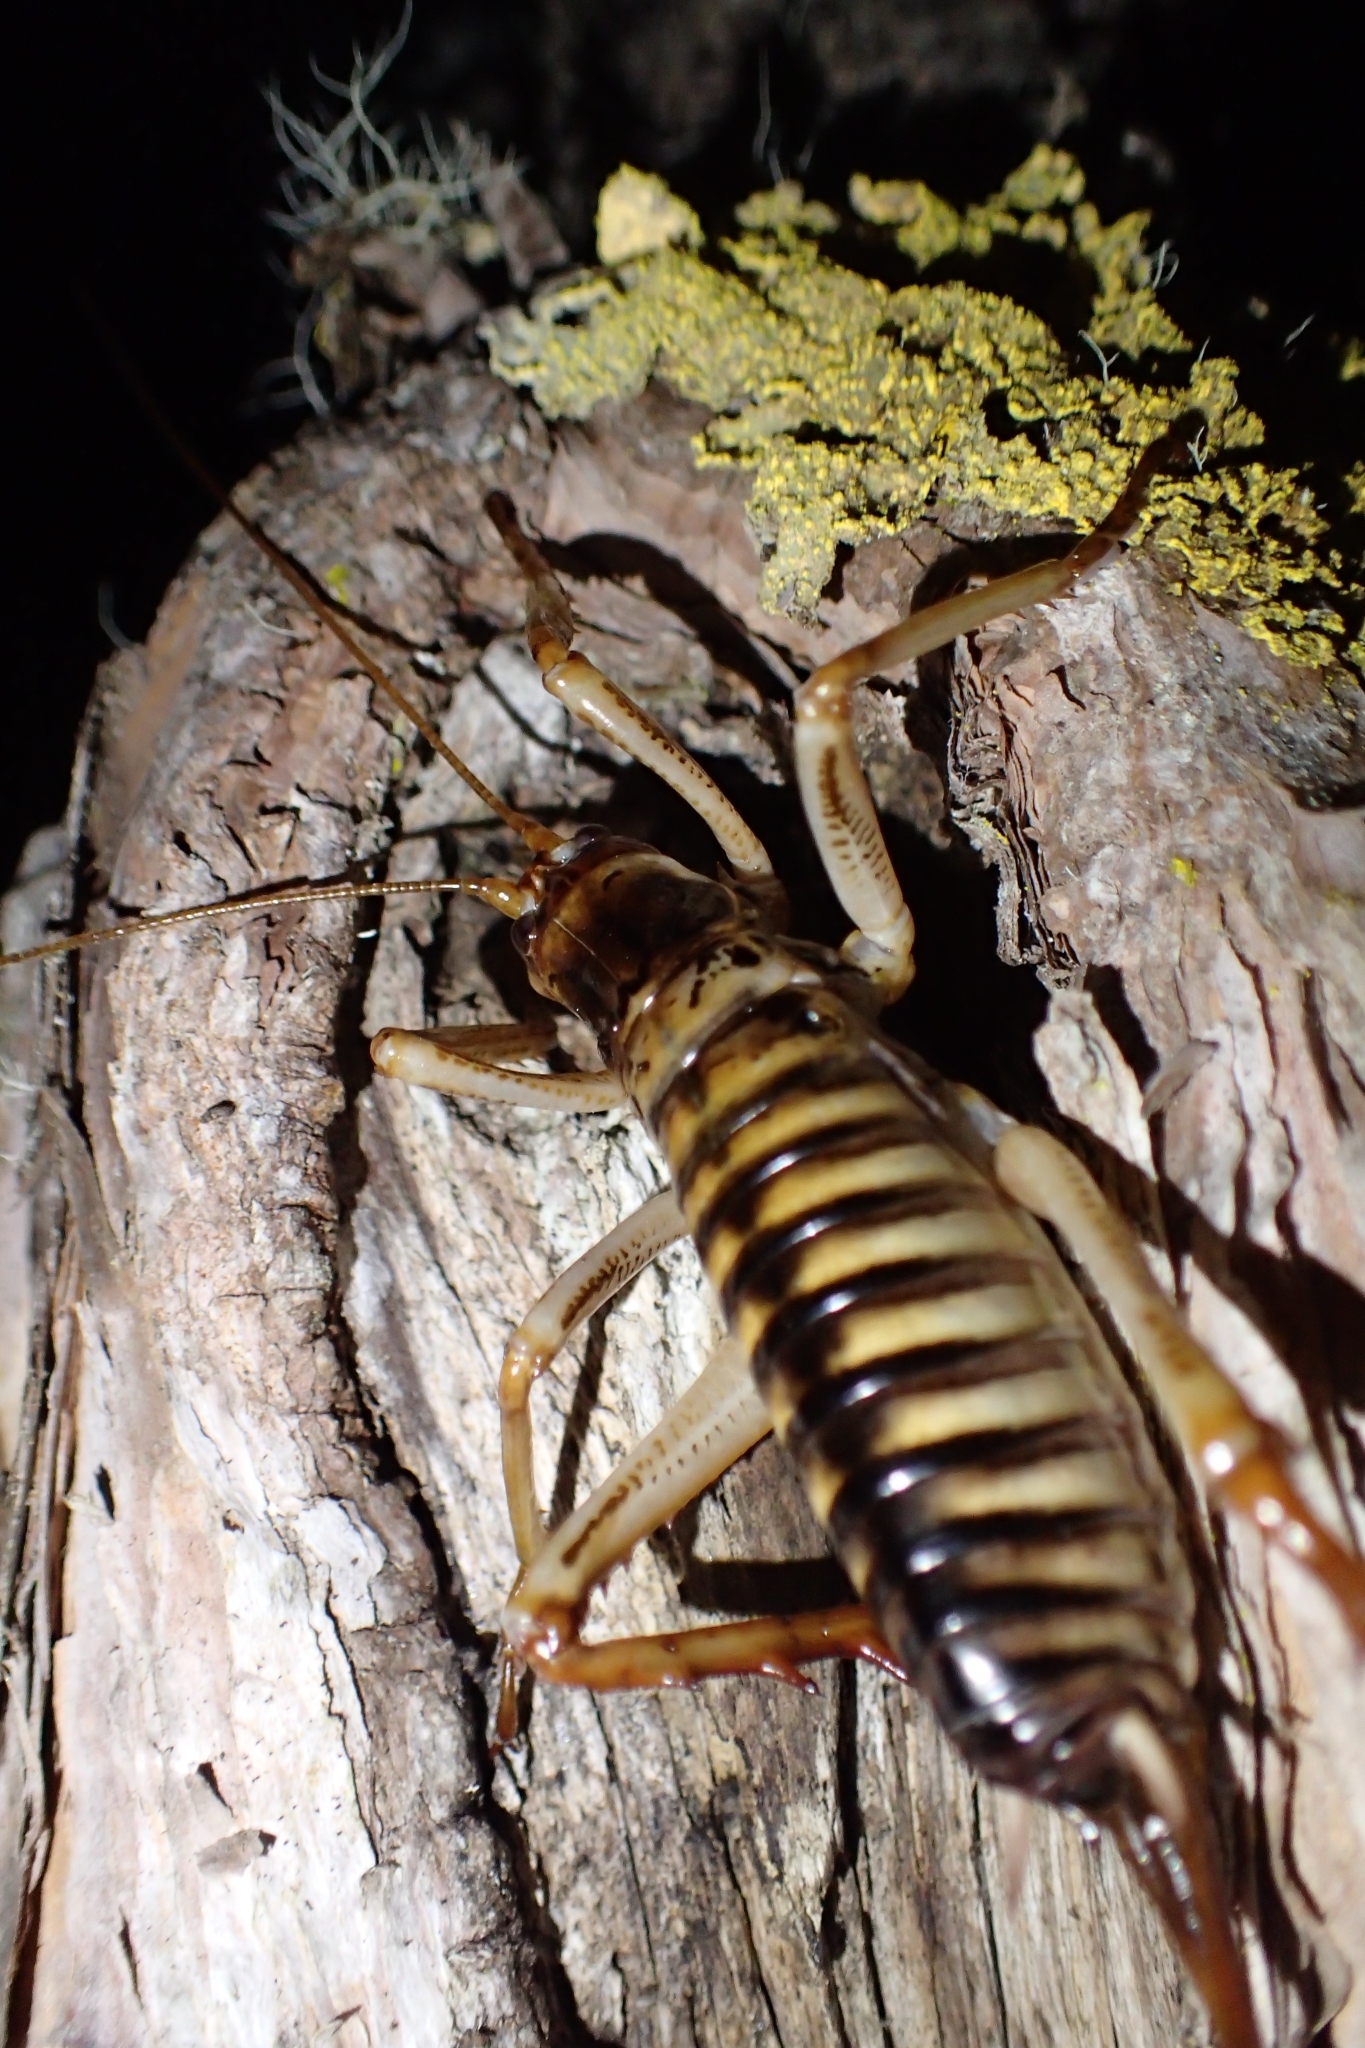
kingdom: Animalia
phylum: Arthropoda
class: Insecta
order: Orthoptera
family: Anostostomatidae
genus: Hemideina
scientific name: Hemideina crassidens
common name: Wellington tree weta
